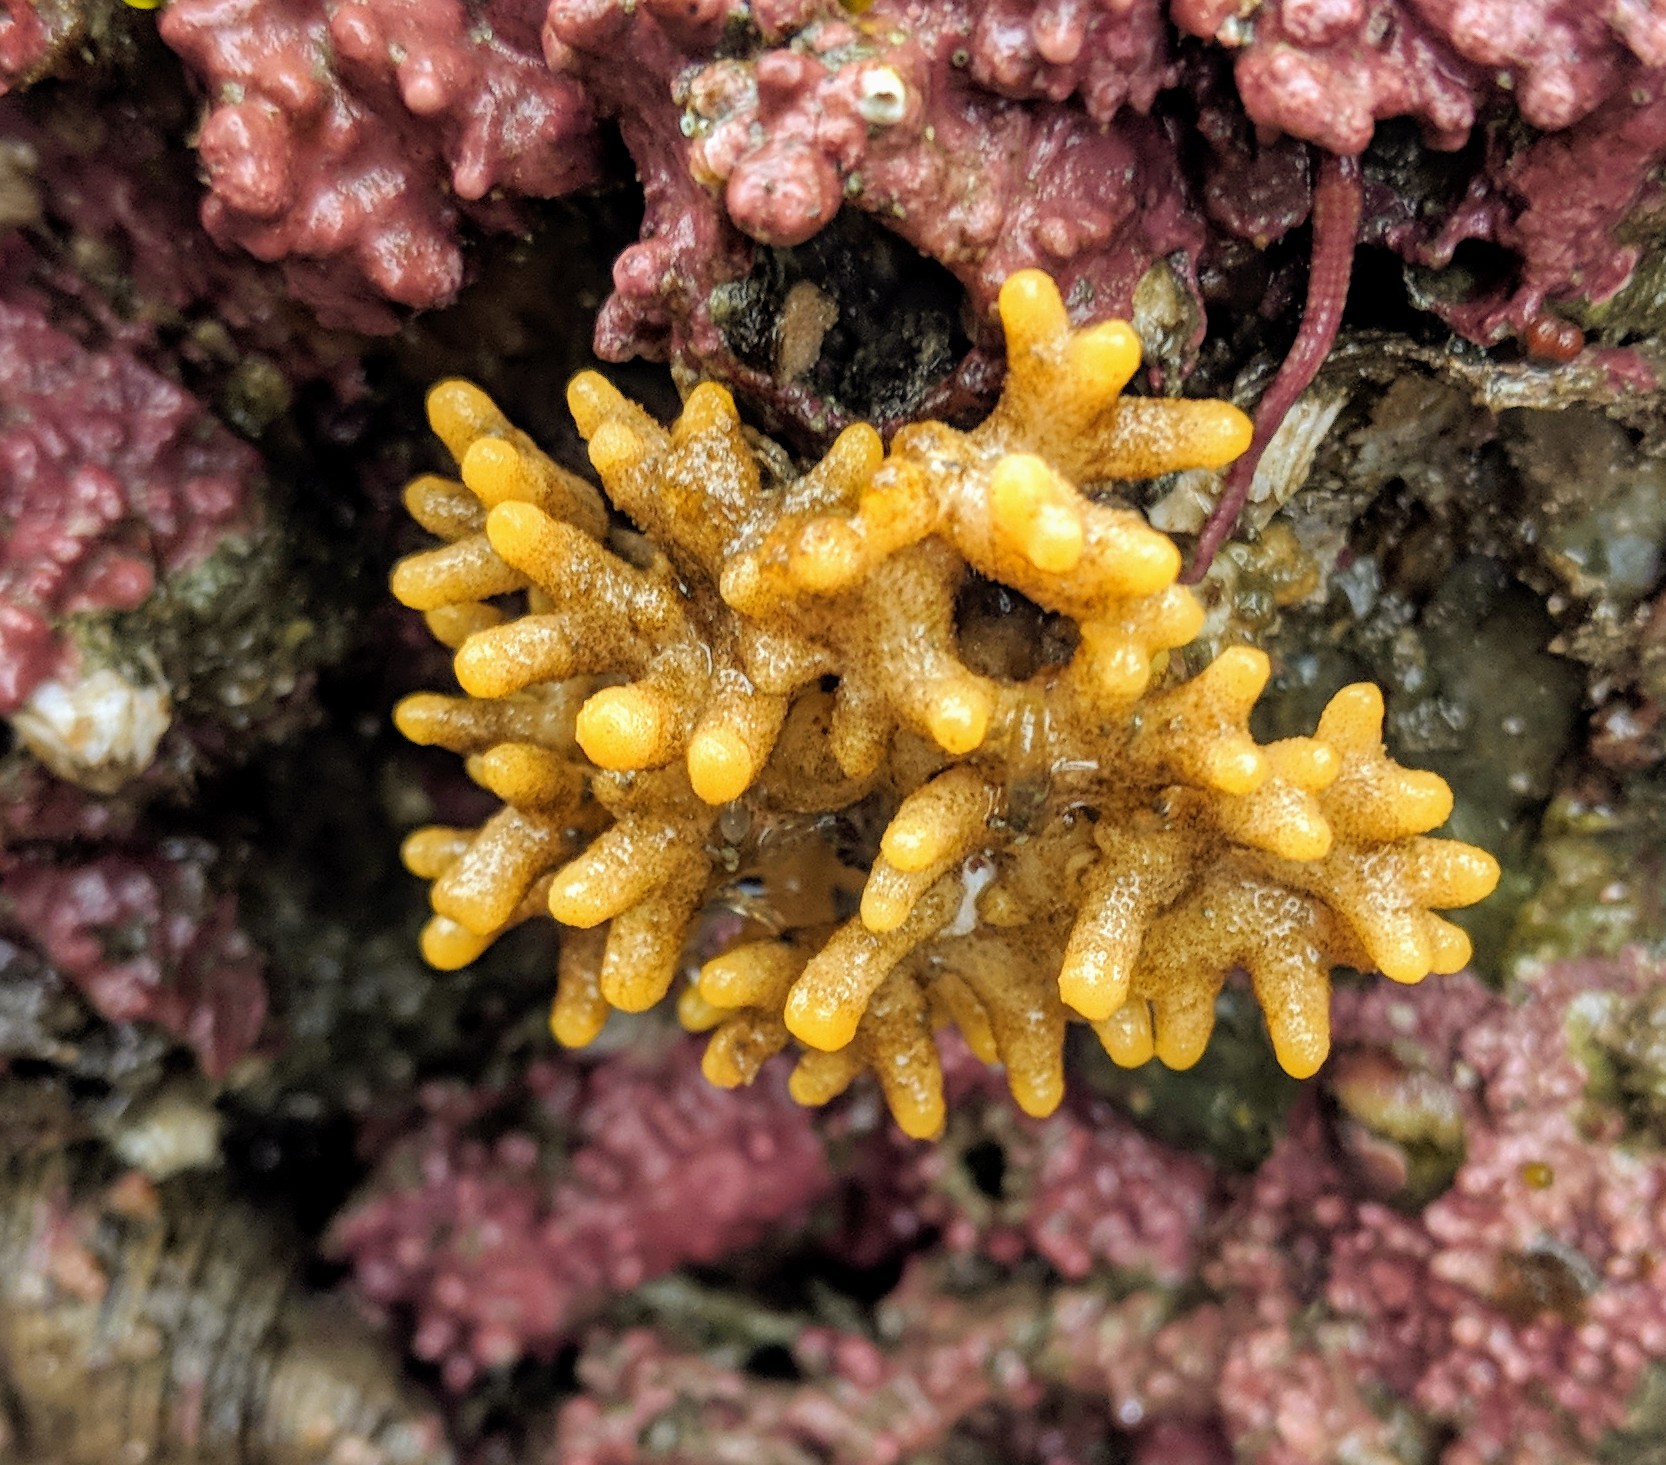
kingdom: Animalia
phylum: Bryozoa
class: Stenolaemata
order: Cyclostomatida
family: Heteroporidae
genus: Heteropora
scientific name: Heteropora pacifica
